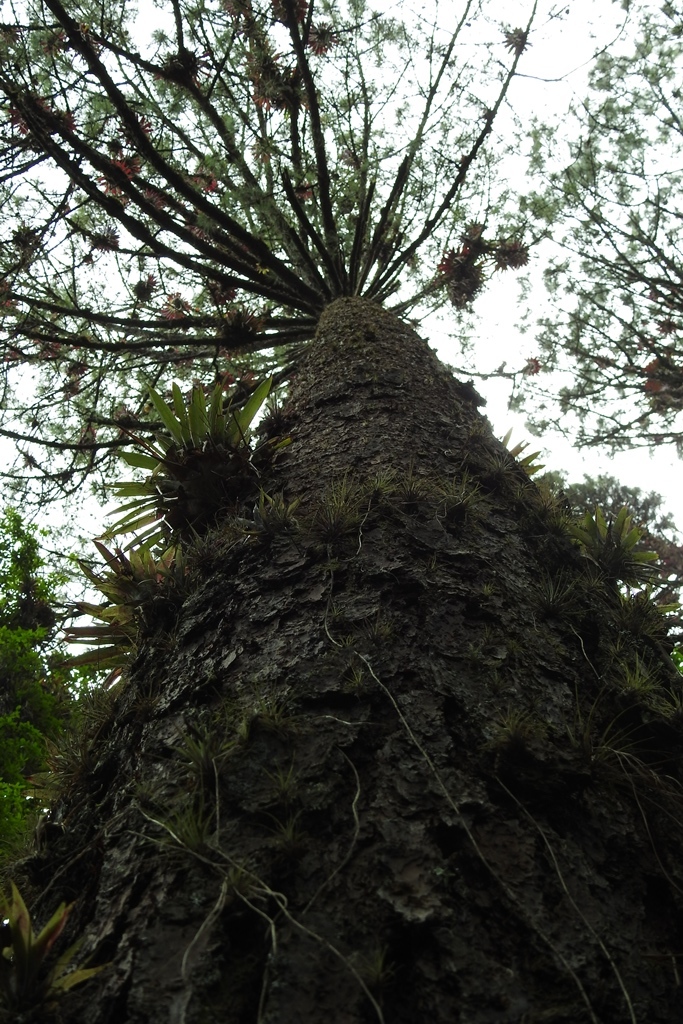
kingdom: Plantae
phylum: Tracheophyta
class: Pinopsida
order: Pinales
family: Pinaceae
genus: Pinus
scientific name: Pinus montezumae
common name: Montezuma pine
